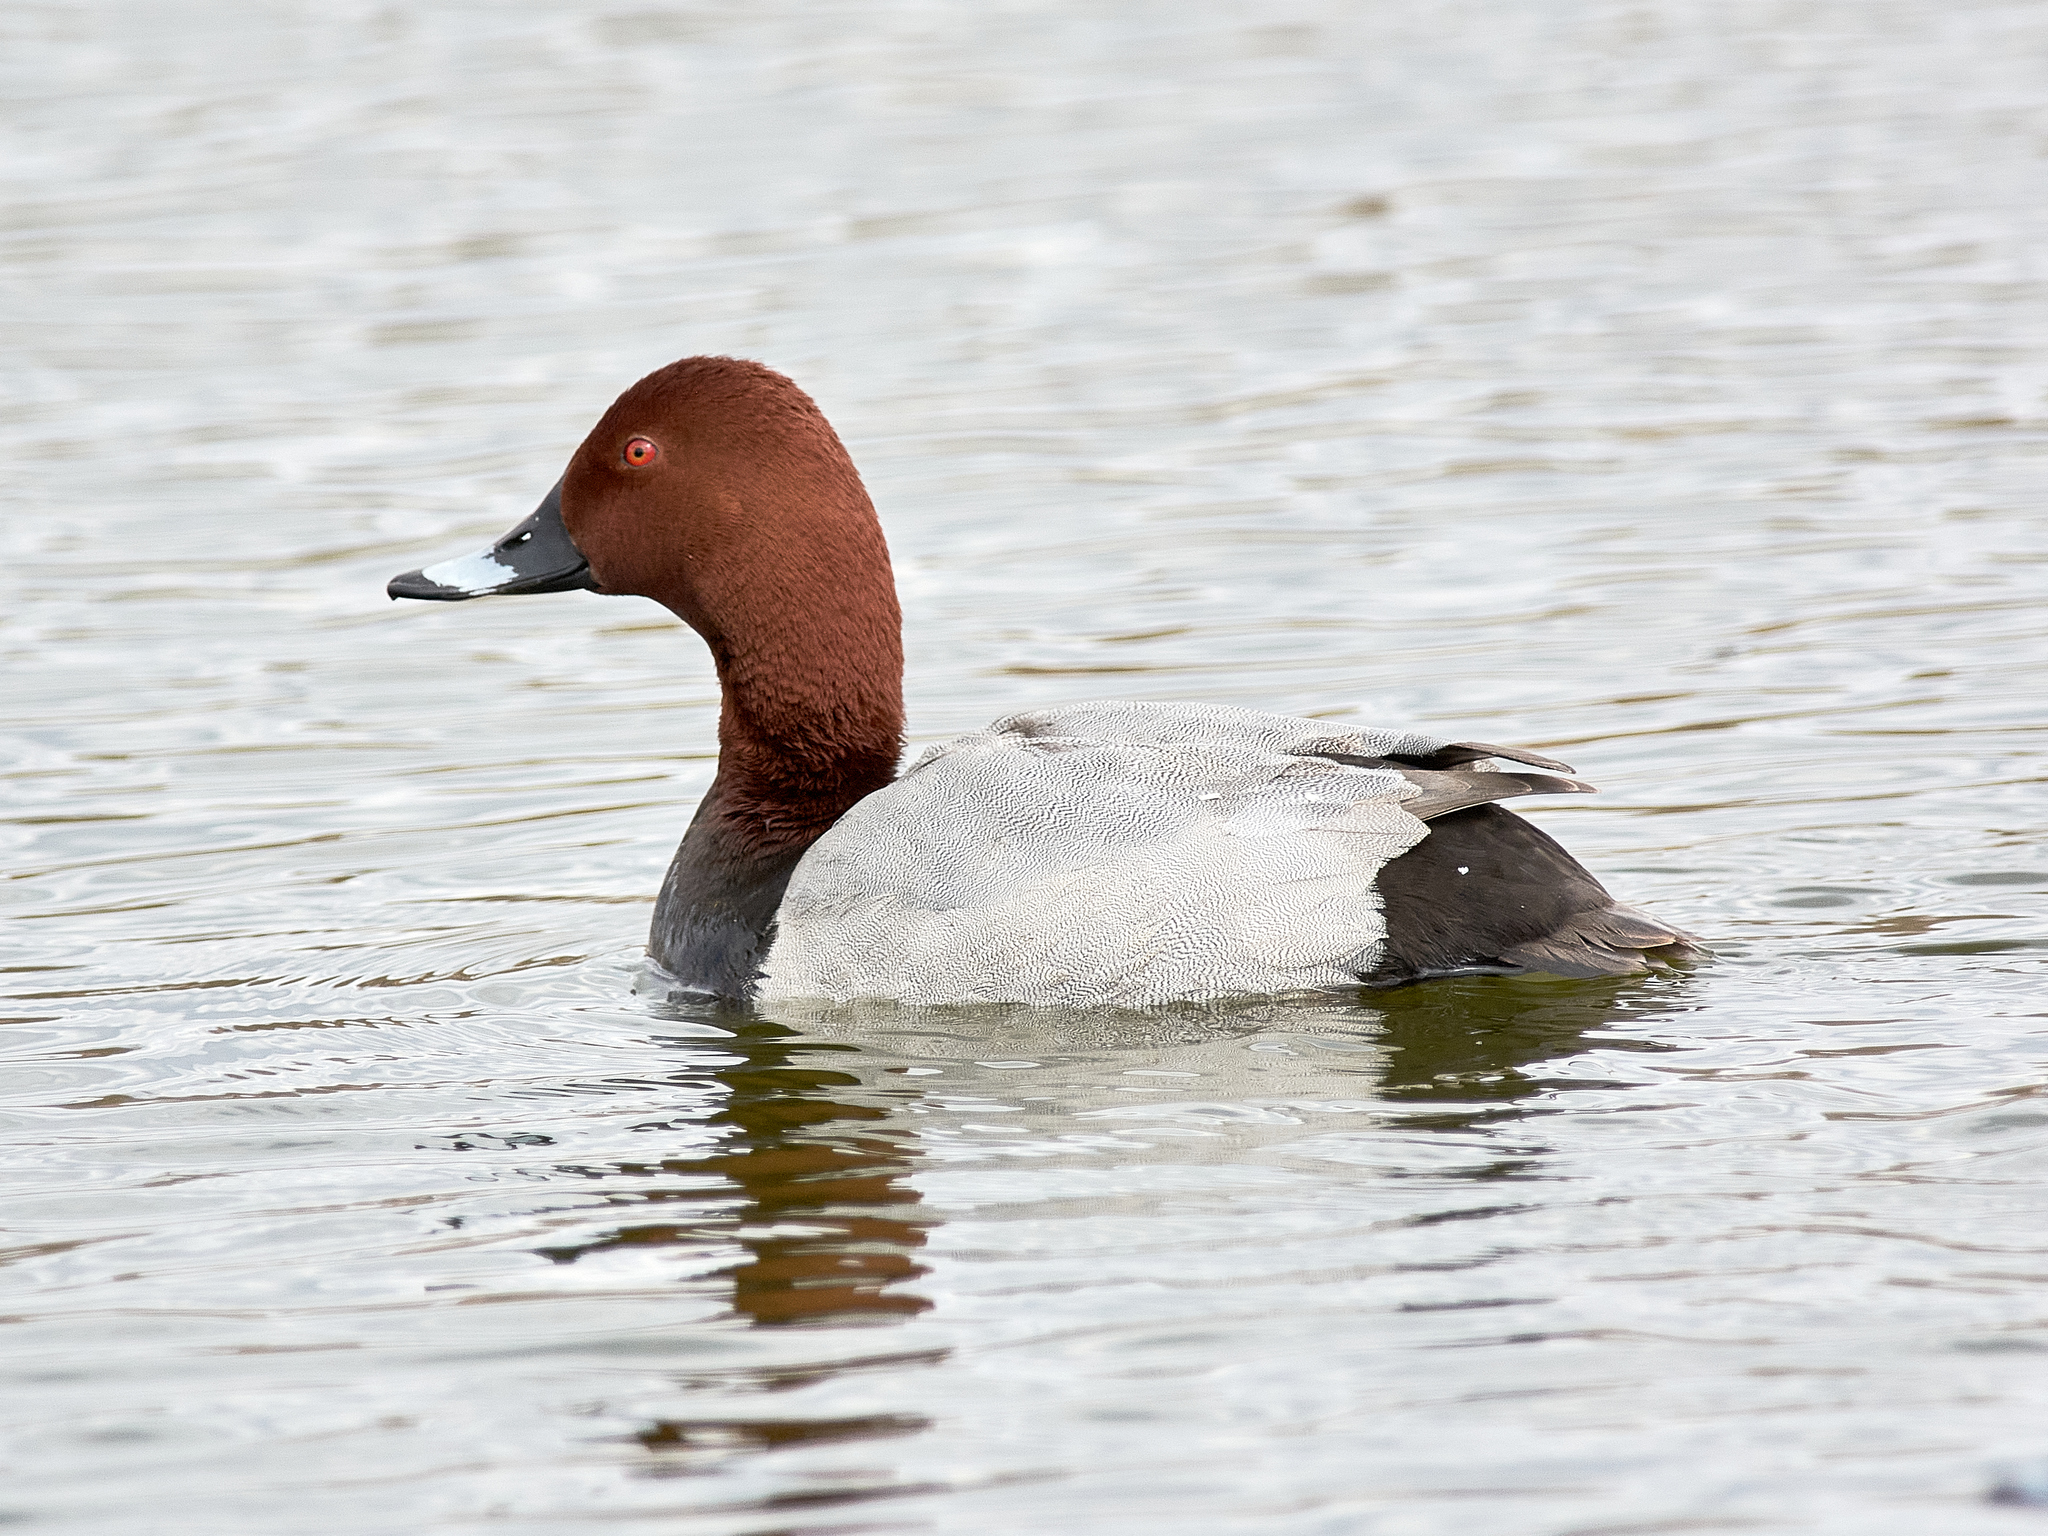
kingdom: Animalia
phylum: Chordata
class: Aves
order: Anseriformes
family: Anatidae
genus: Aythya
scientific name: Aythya ferina
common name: Common pochard
